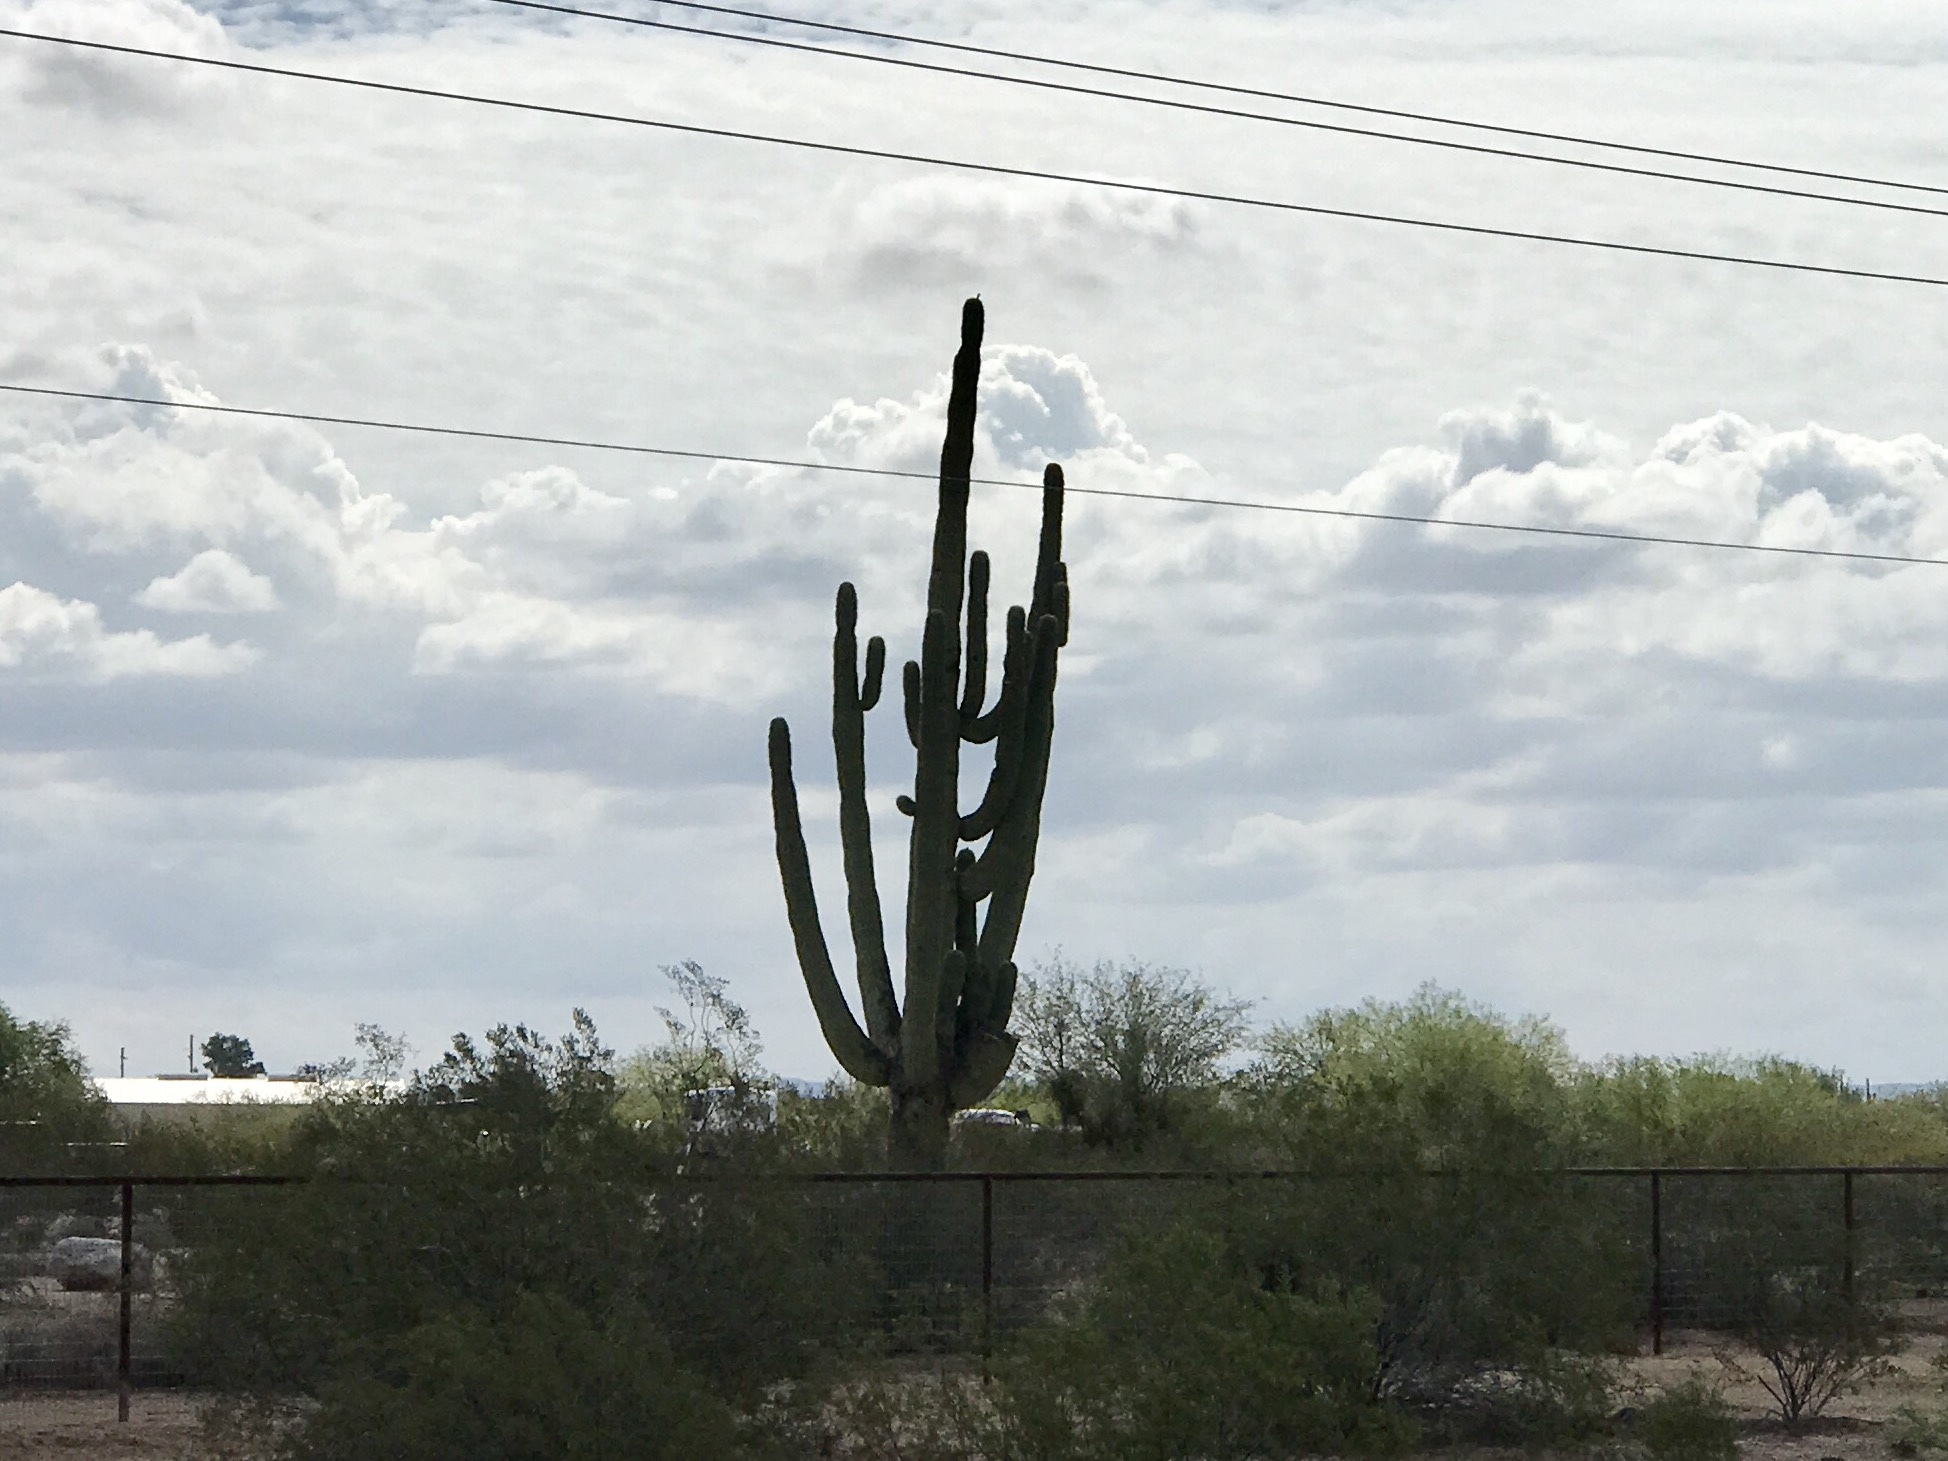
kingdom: Plantae
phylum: Tracheophyta
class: Magnoliopsida
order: Caryophyllales
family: Cactaceae
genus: Carnegiea
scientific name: Carnegiea gigantea
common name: Saguaro
